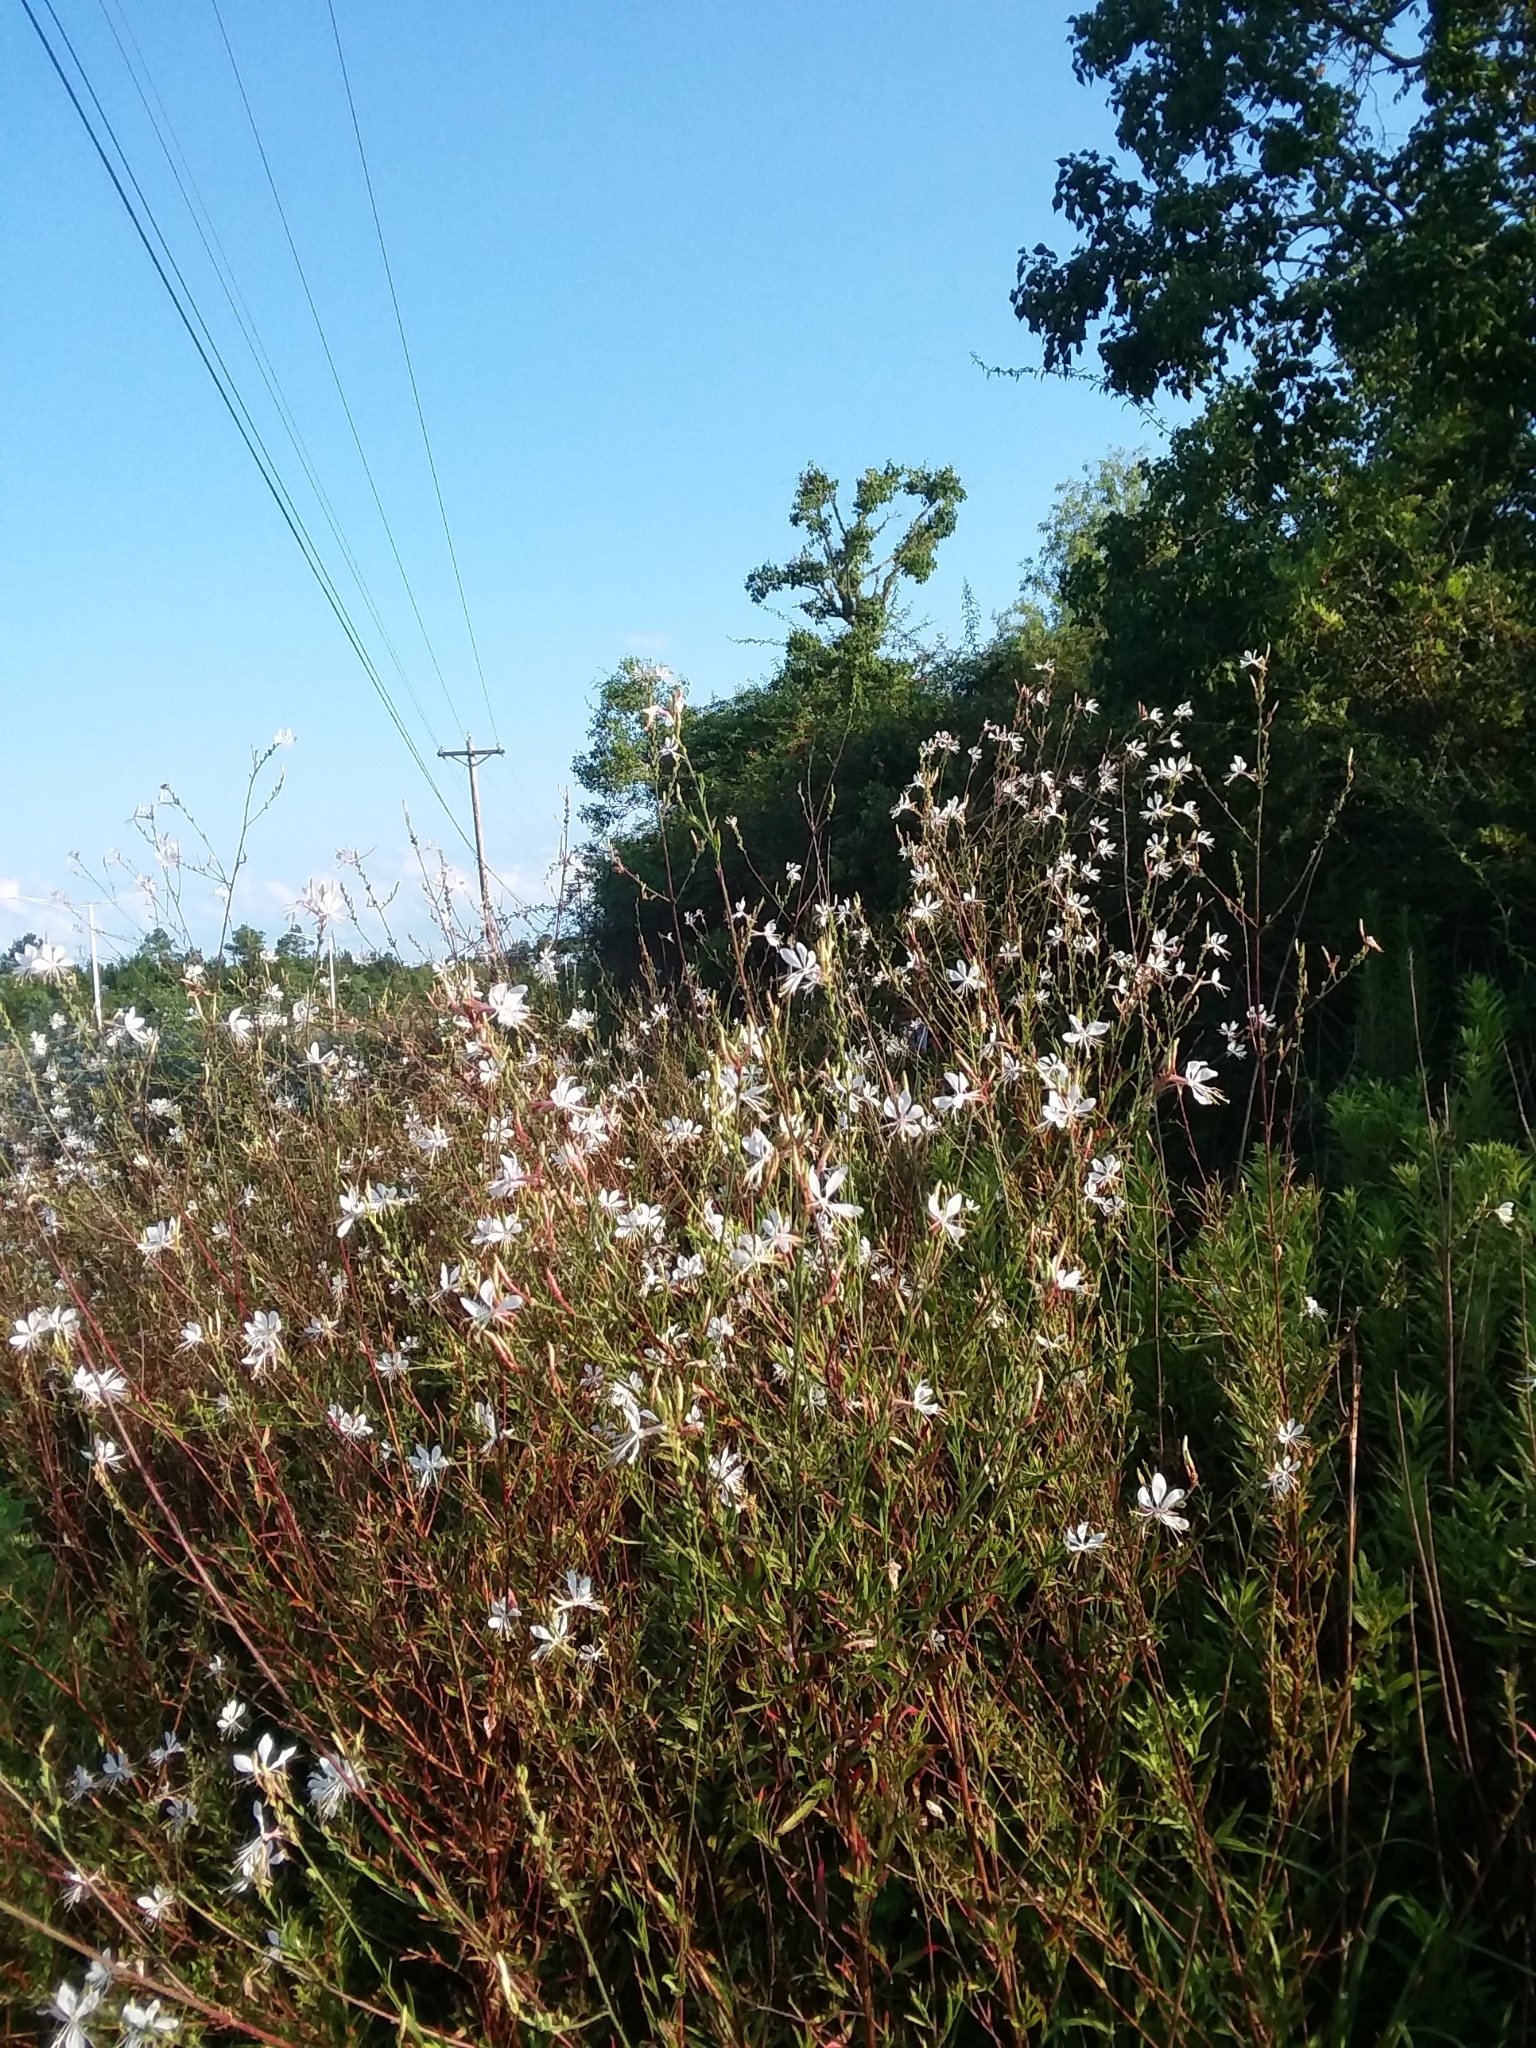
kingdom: Plantae
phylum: Tracheophyta
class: Magnoliopsida
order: Myrtales
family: Onagraceae
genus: Oenothera
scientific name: Oenothera filiformis
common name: Longflower beeblossom
